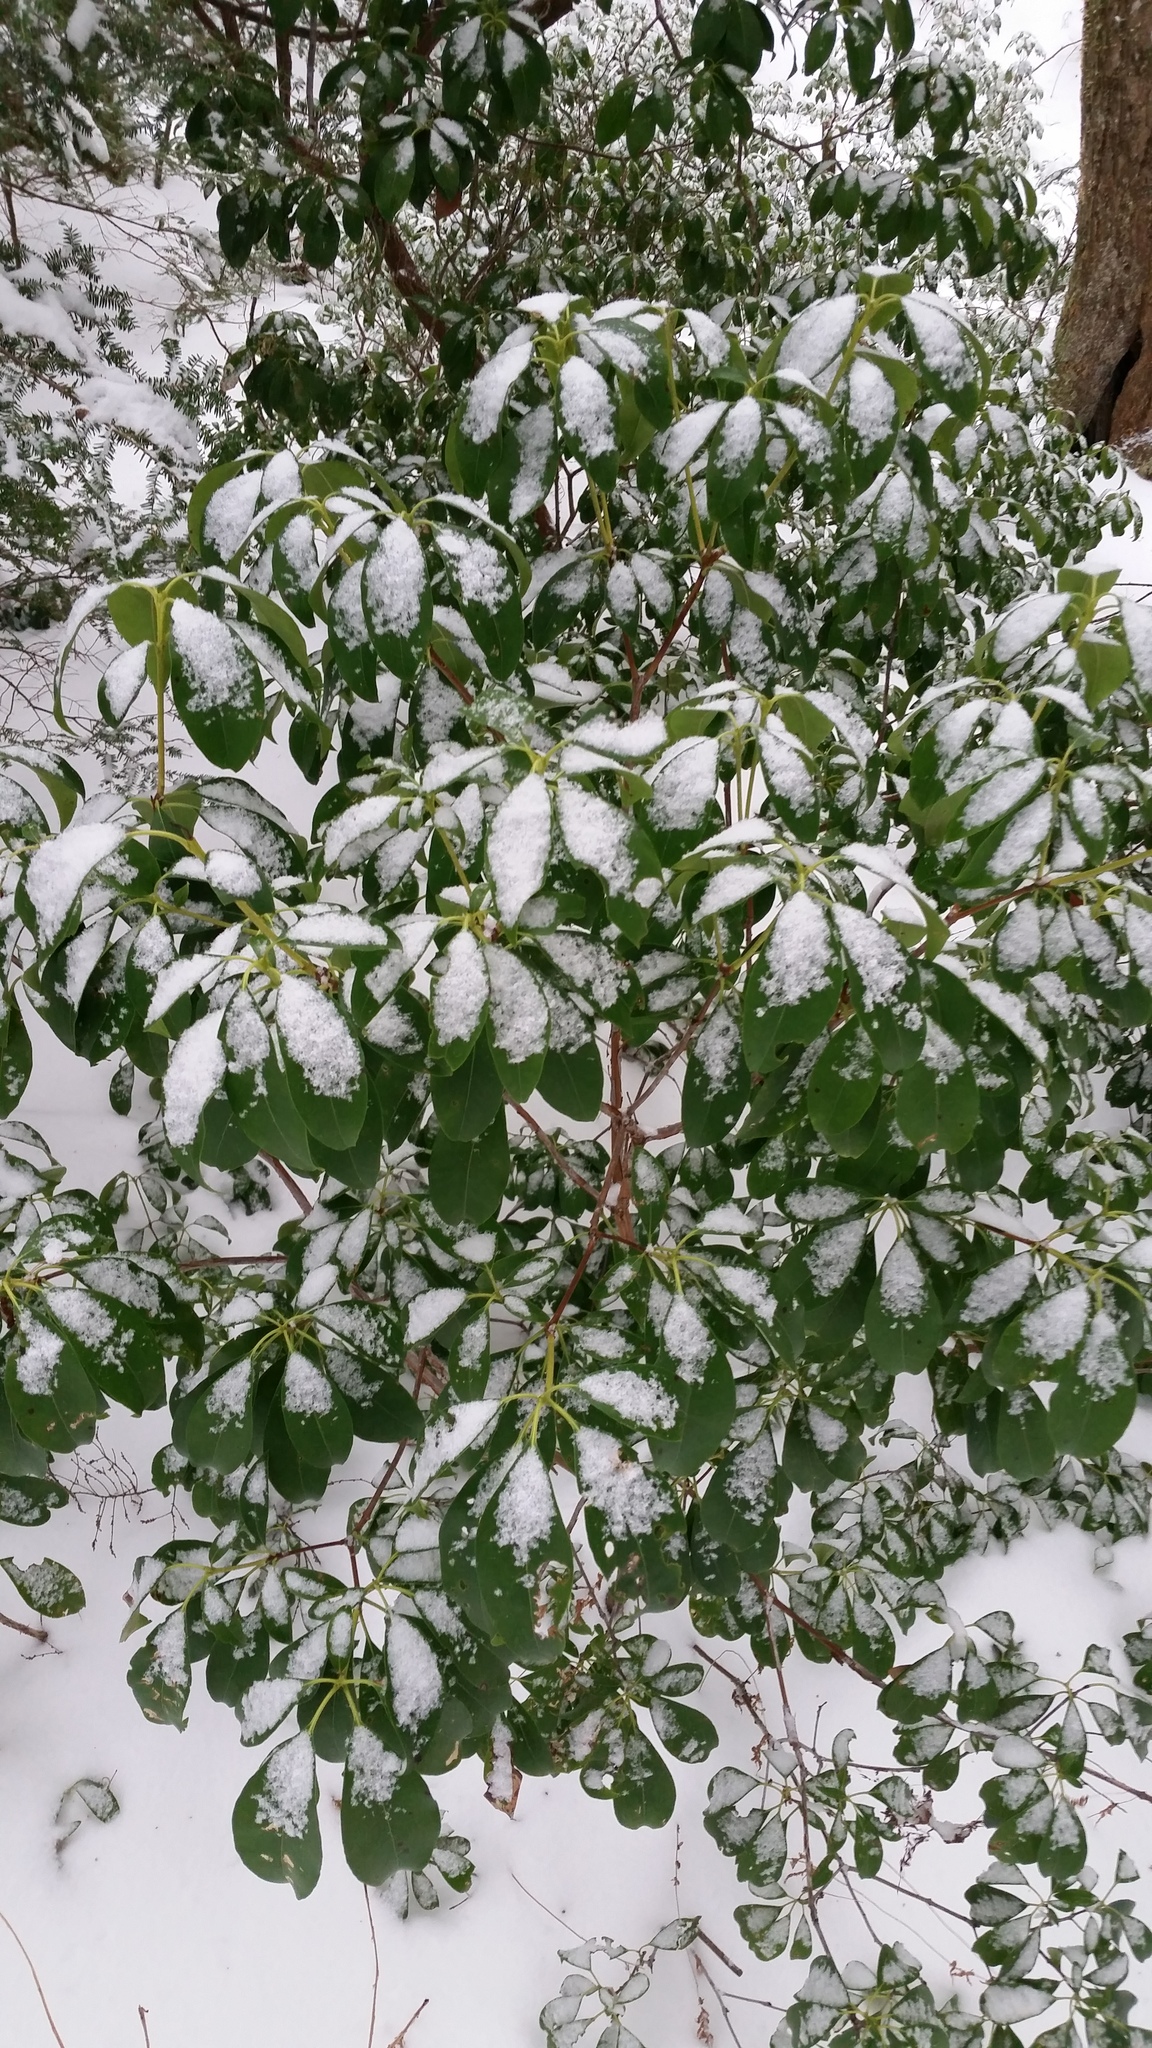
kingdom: Plantae
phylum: Tracheophyta
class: Magnoliopsida
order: Ericales
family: Ericaceae
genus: Kalmia
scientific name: Kalmia latifolia
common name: Mountain-laurel
